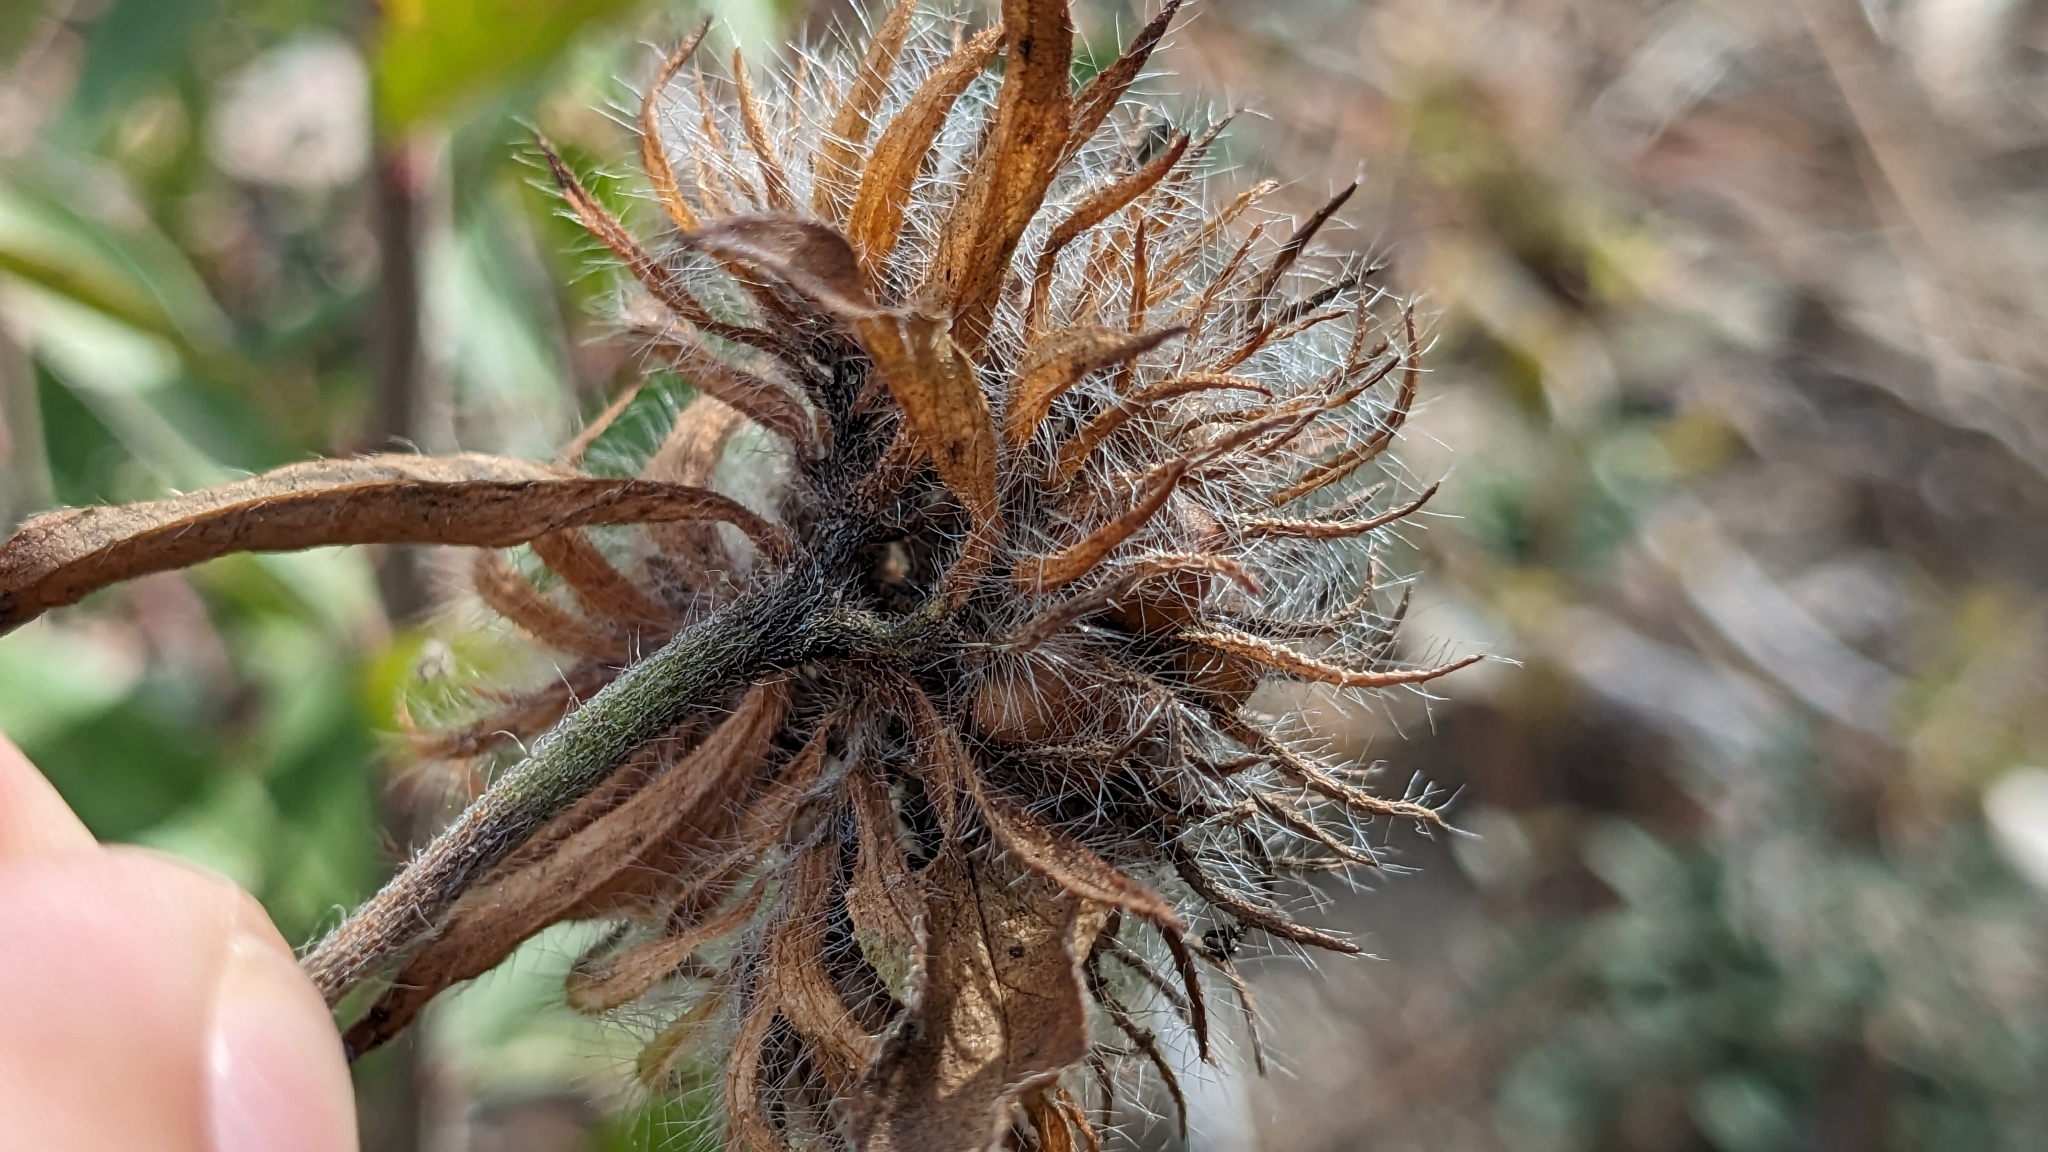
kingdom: Plantae
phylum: Tracheophyta
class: Magnoliopsida
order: Solanales
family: Convolvulaceae
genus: Jacquemontia
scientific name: Jacquemontia tamnifolia
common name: Hairy clustervine
